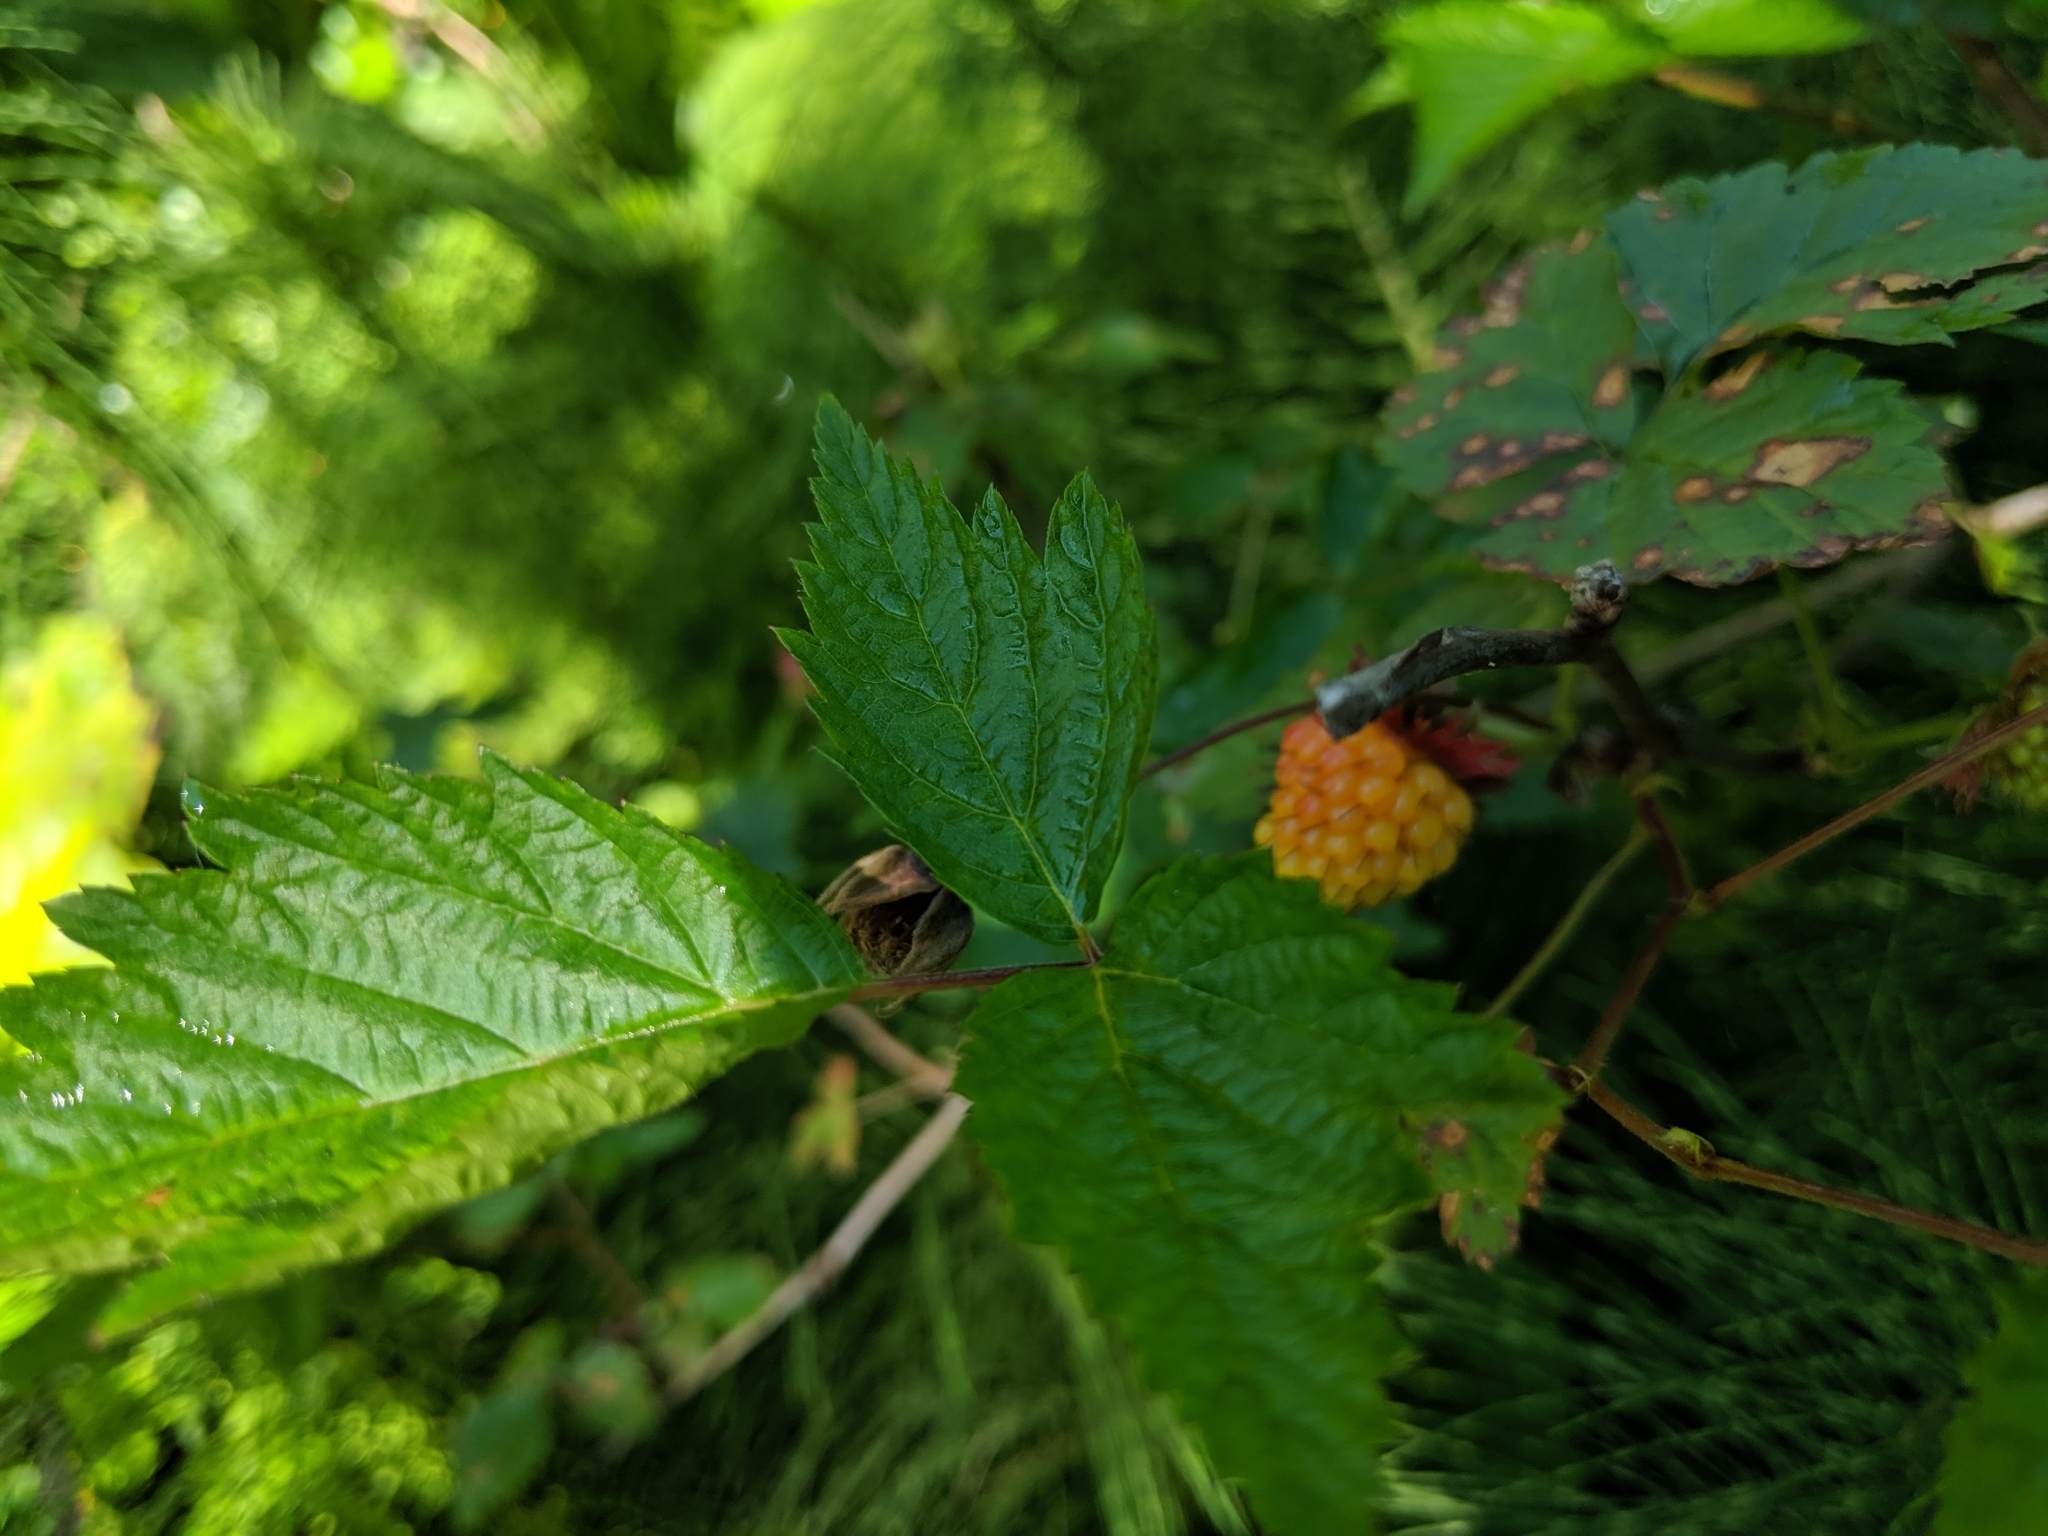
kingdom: Plantae
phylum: Tracheophyta
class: Magnoliopsida
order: Rosales
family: Rosaceae
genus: Rubus
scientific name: Rubus spectabilis
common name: Salmonberry
